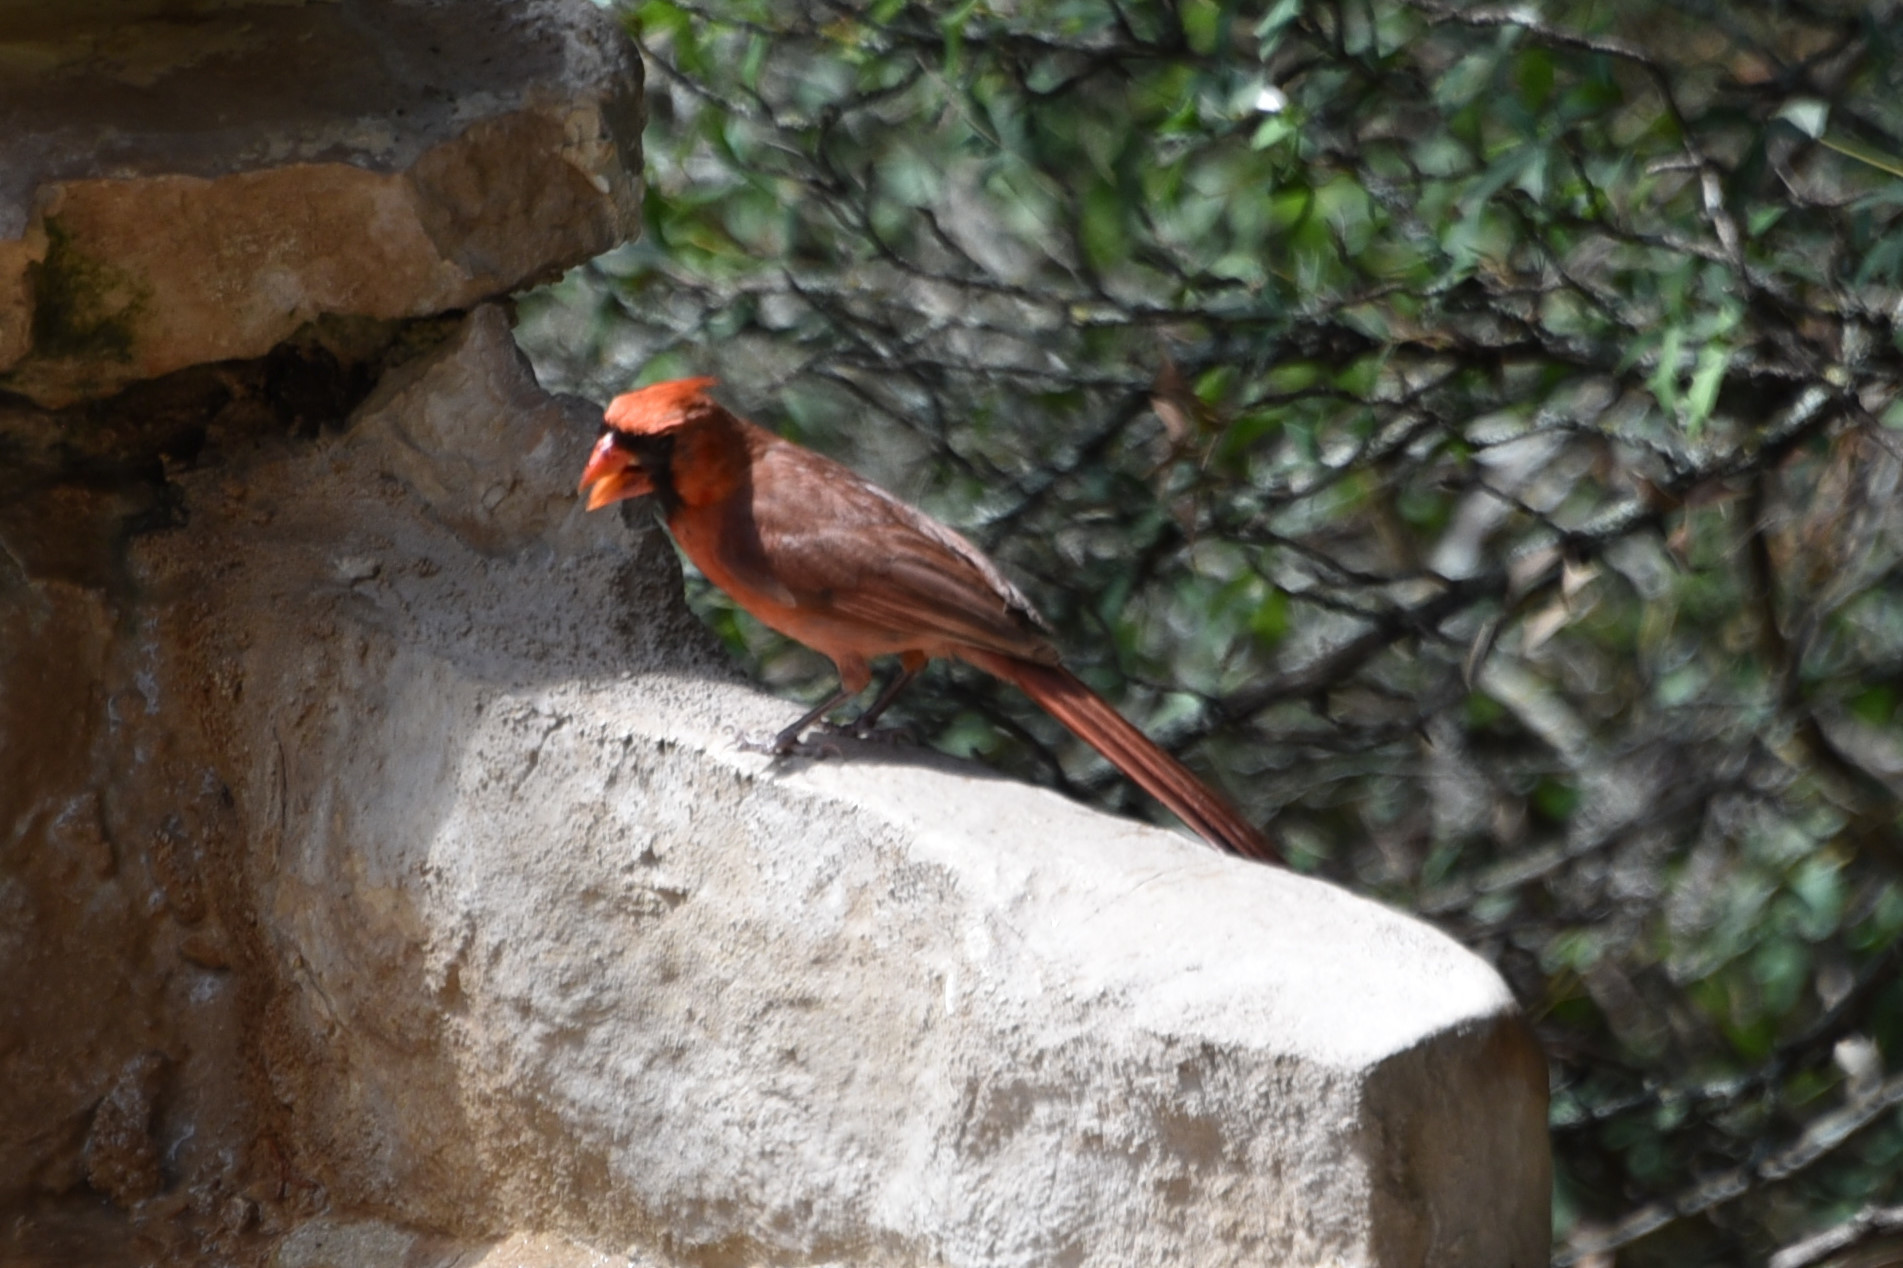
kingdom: Animalia
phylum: Chordata
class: Aves
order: Passeriformes
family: Cardinalidae
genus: Cardinalis
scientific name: Cardinalis cardinalis
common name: Northern cardinal
